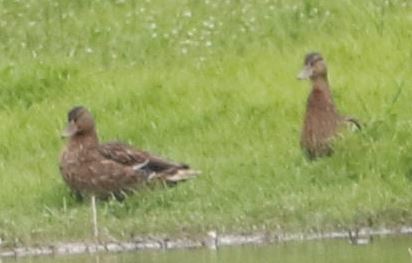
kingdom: Animalia
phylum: Chordata
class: Aves
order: Anseriformes
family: Anatidae
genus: Anas
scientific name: Anas platyrhynchos
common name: Mallard
